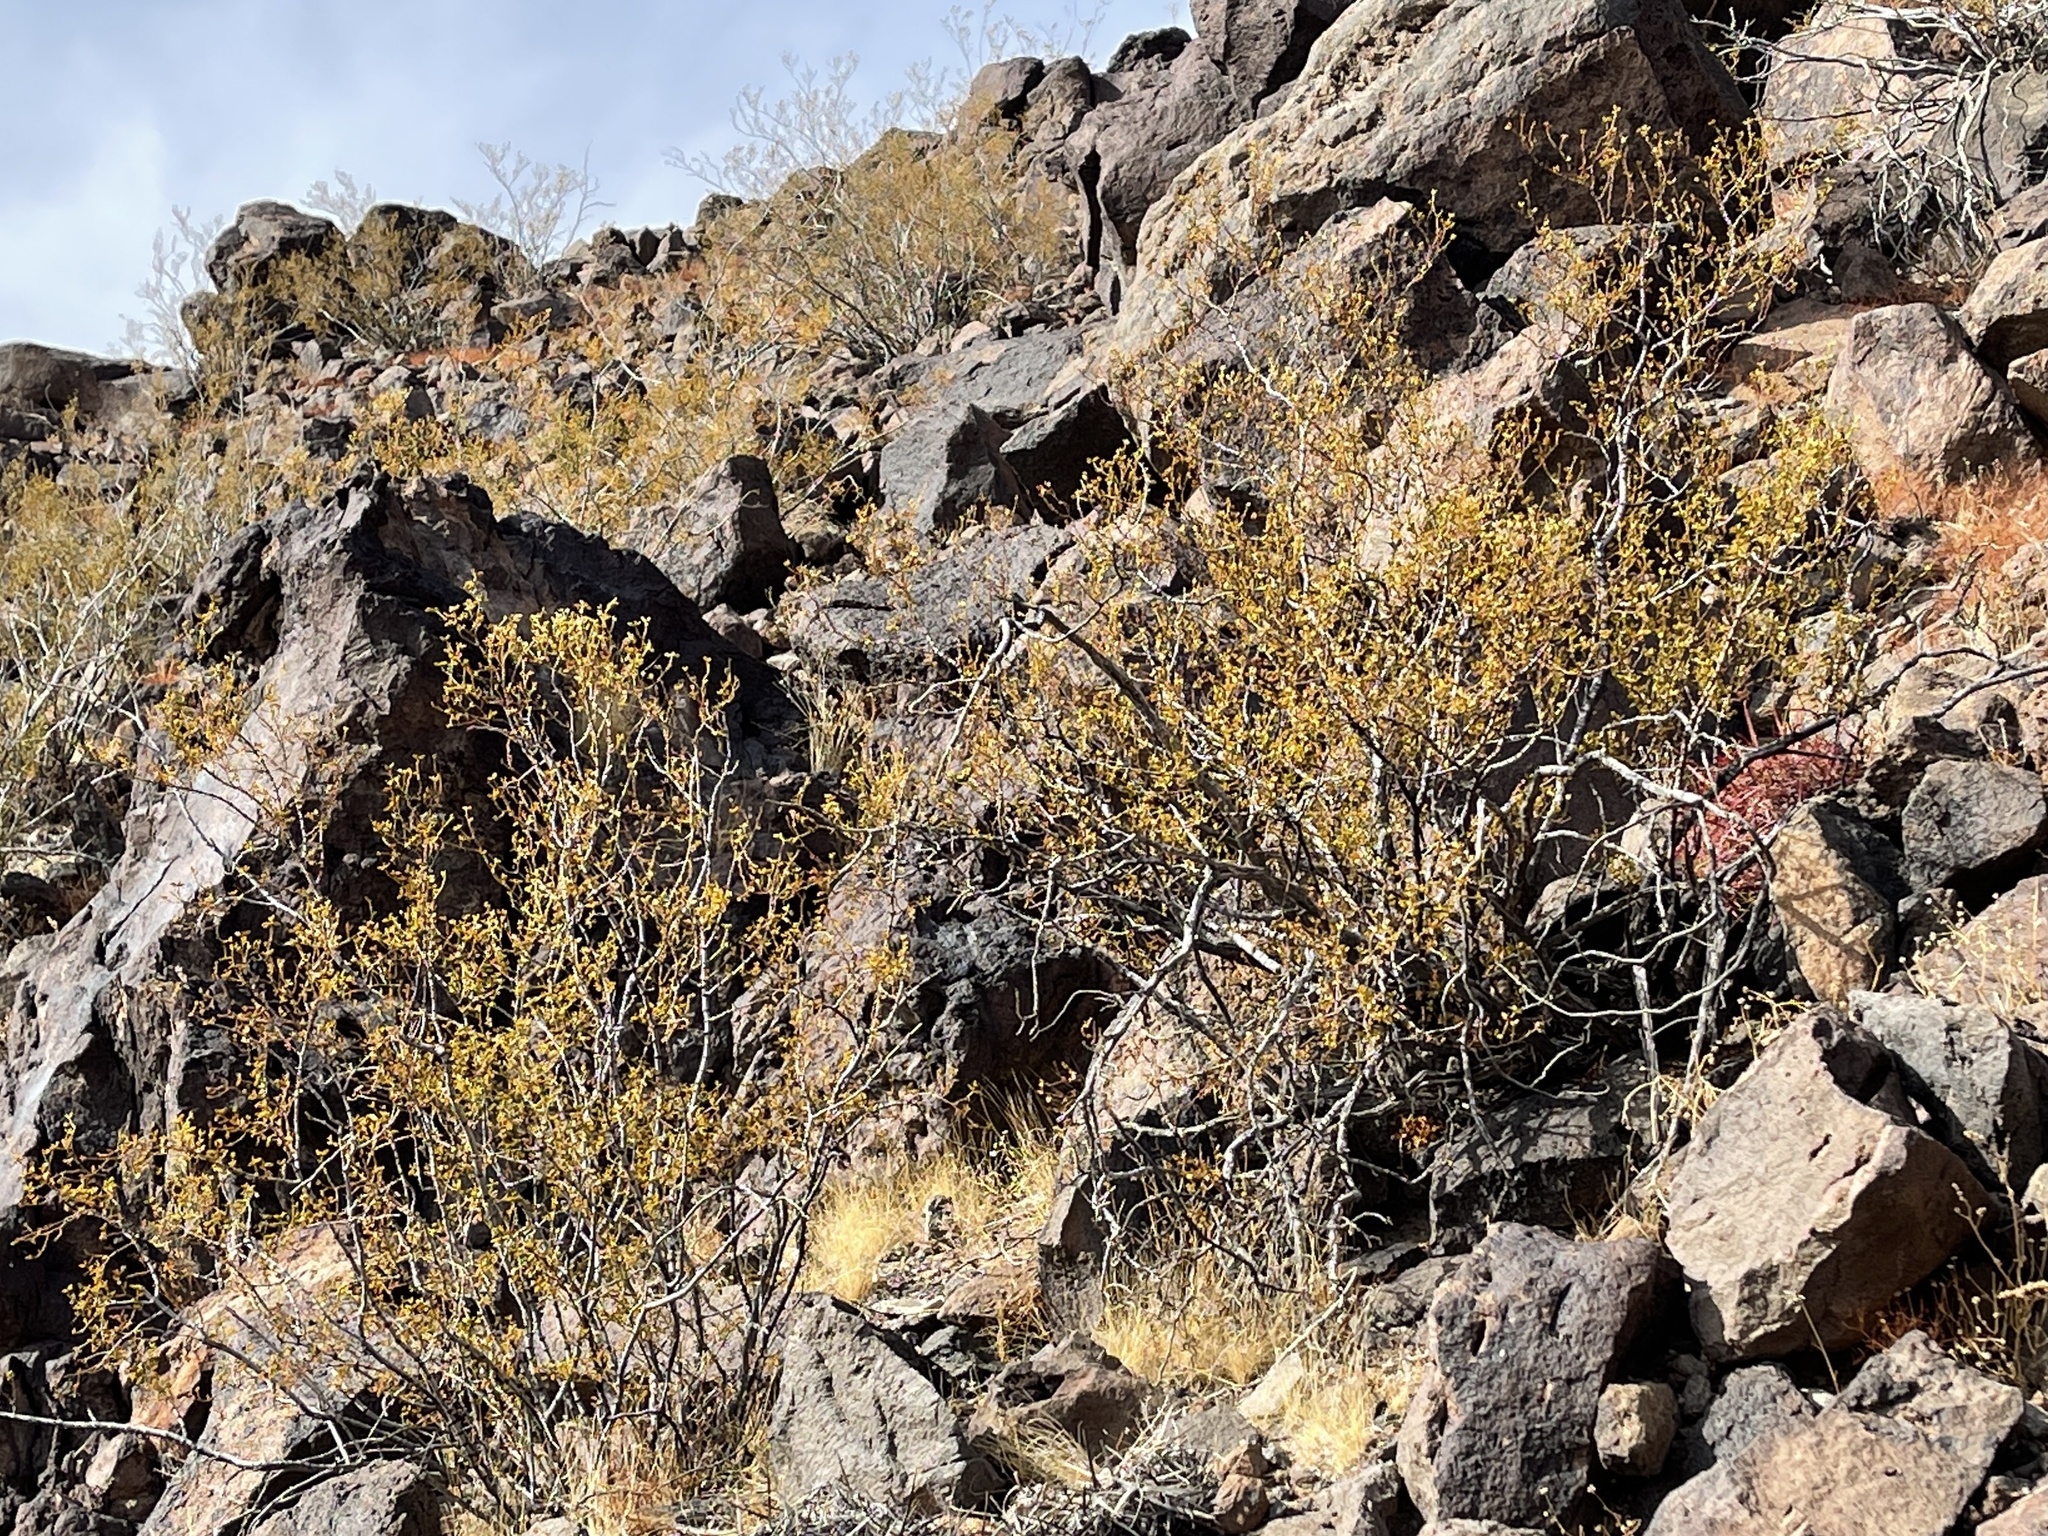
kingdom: Plantae
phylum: Tracheophyta
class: Magnoliopsida
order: Zygophyllales
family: Zygophyllaceae
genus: Larrea
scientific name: Larrea tridentata
